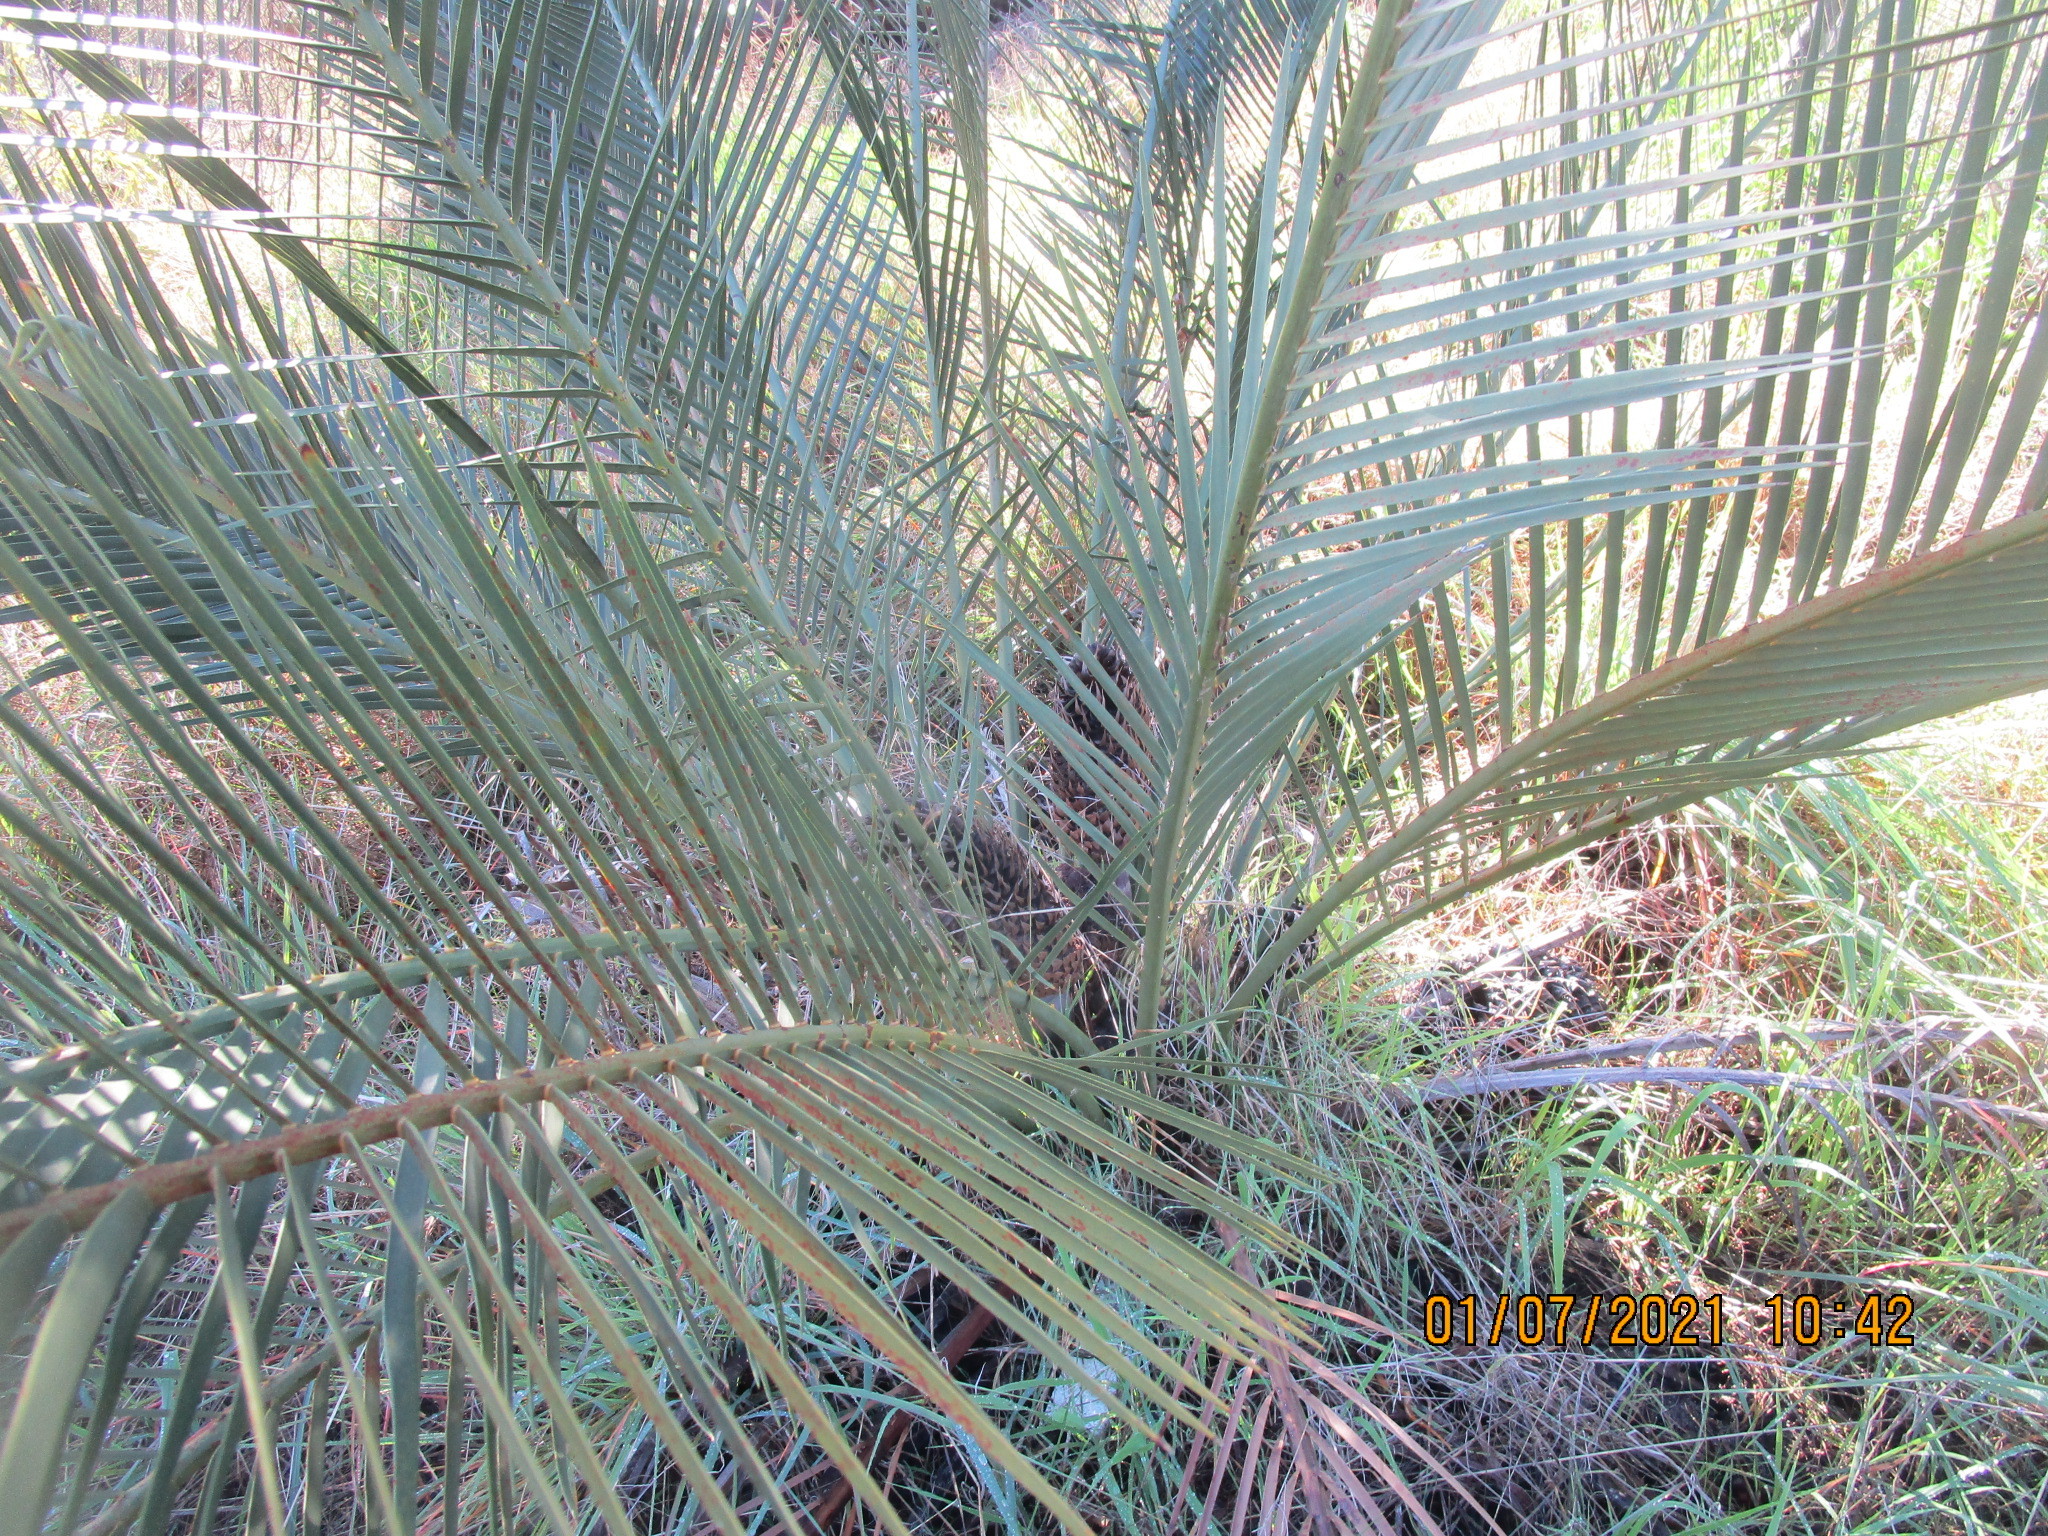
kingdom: Plantae
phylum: Tracheophyta
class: Cycadopsida
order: Cycadales
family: Zamiaceae
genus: Macrozamia
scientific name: Macrozamia riedlei
